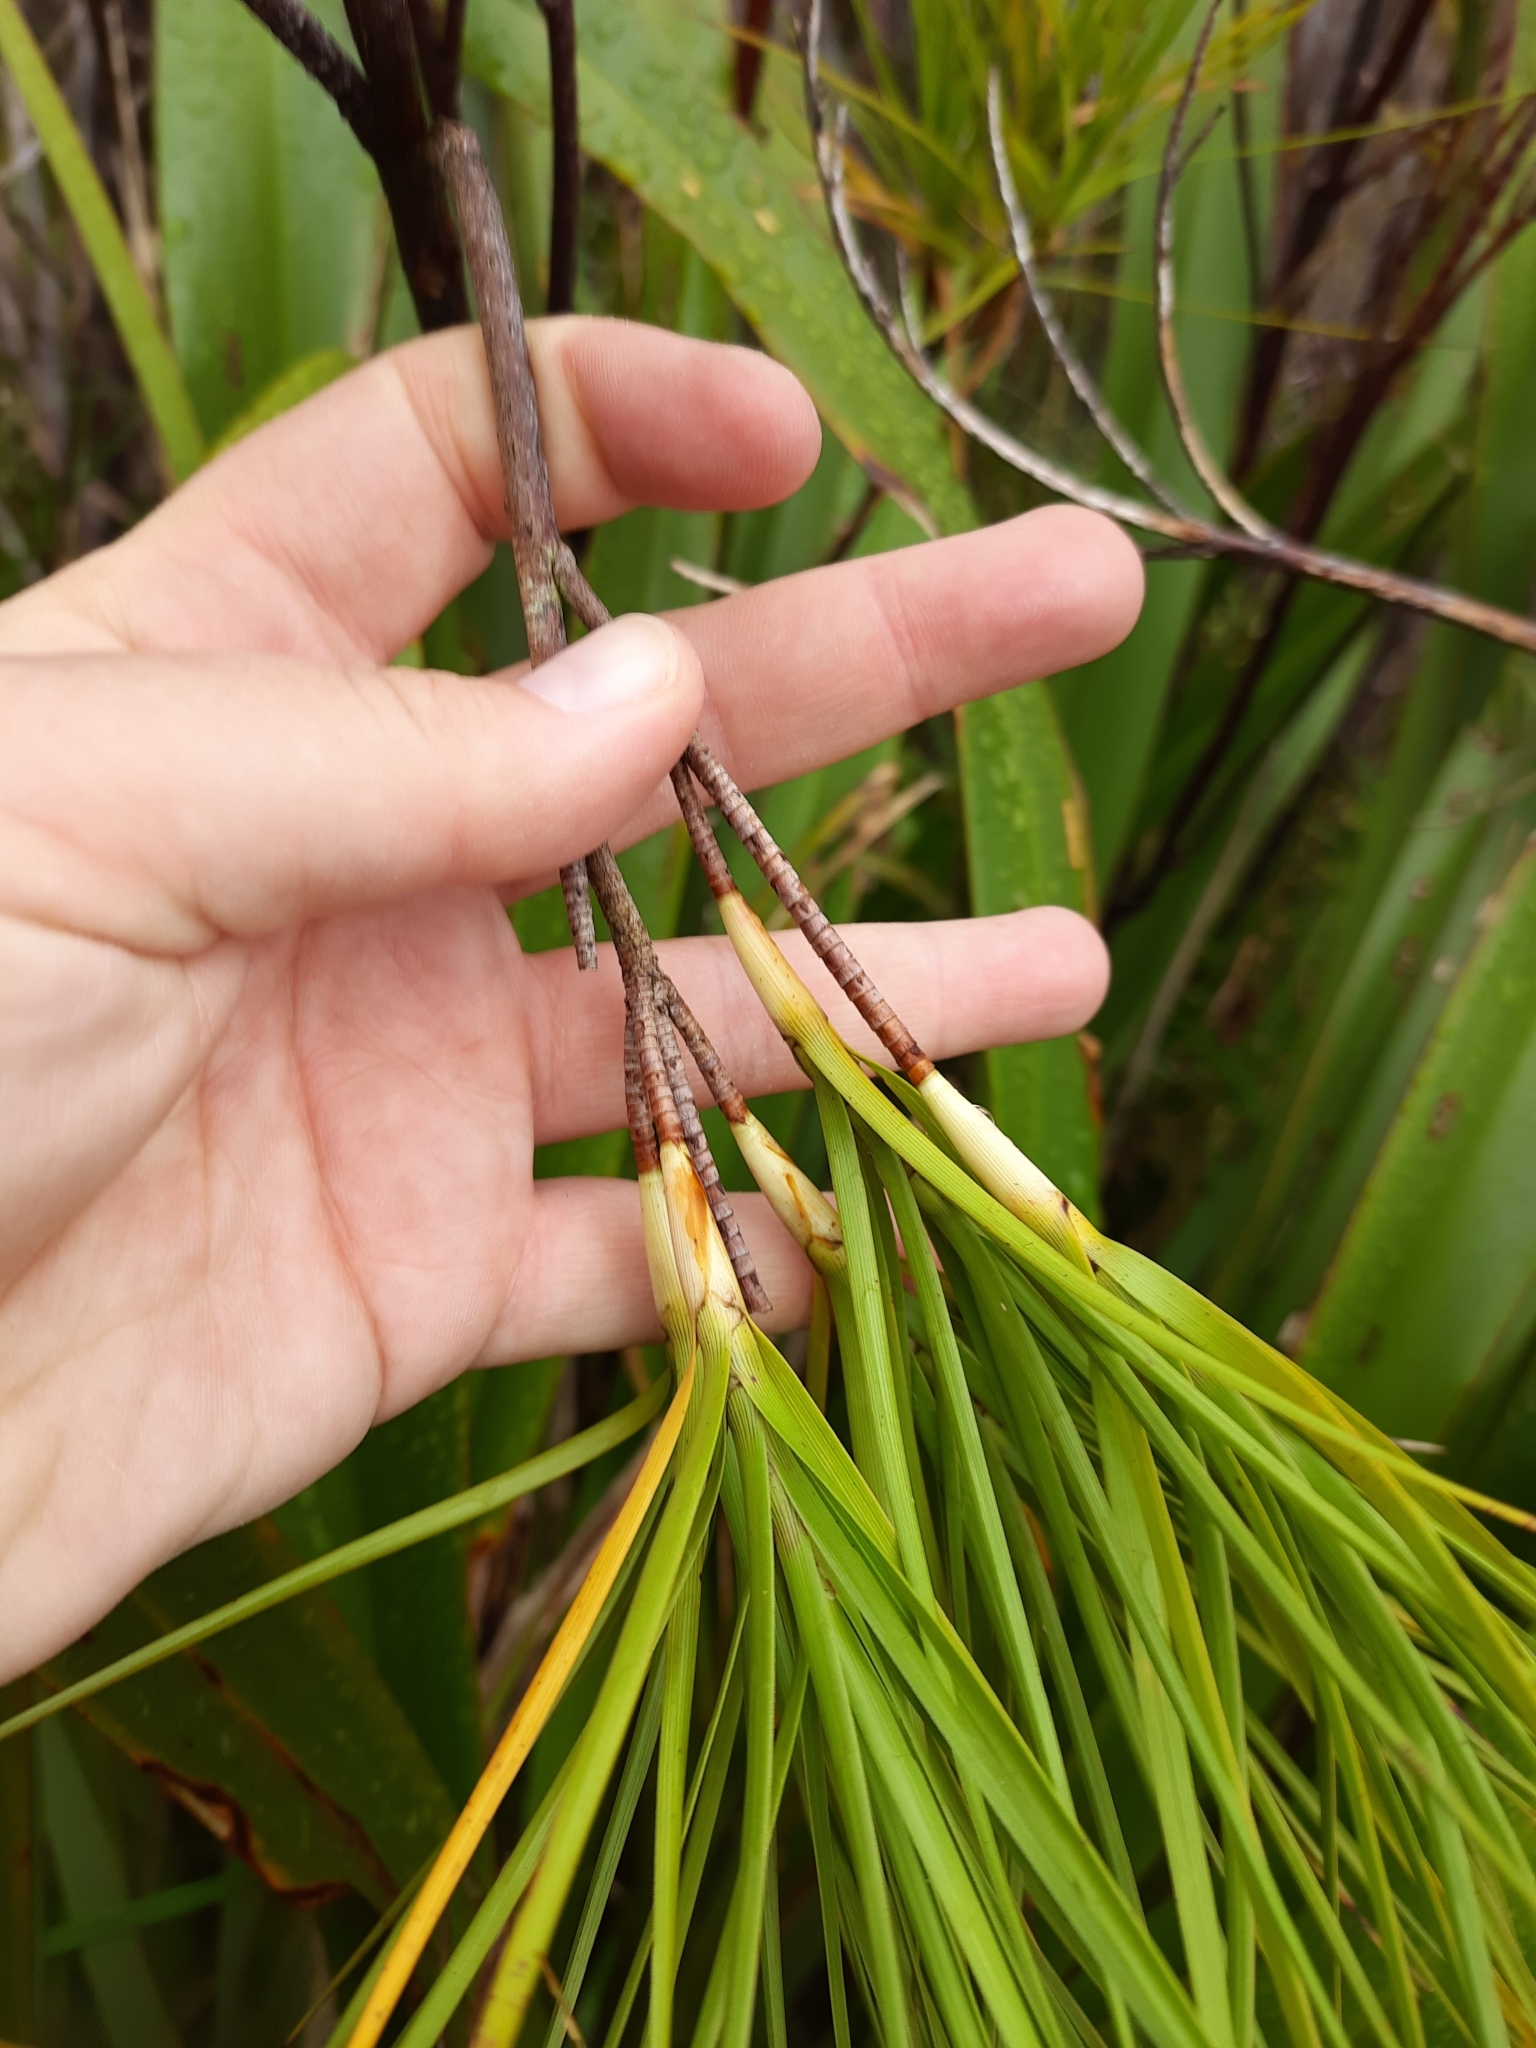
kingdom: Plantae
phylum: Tracheophyta
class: Magnoliopsida
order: Ericales
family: Ericaceae
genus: Dracophyllum
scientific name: Dracophyllum longifolium
